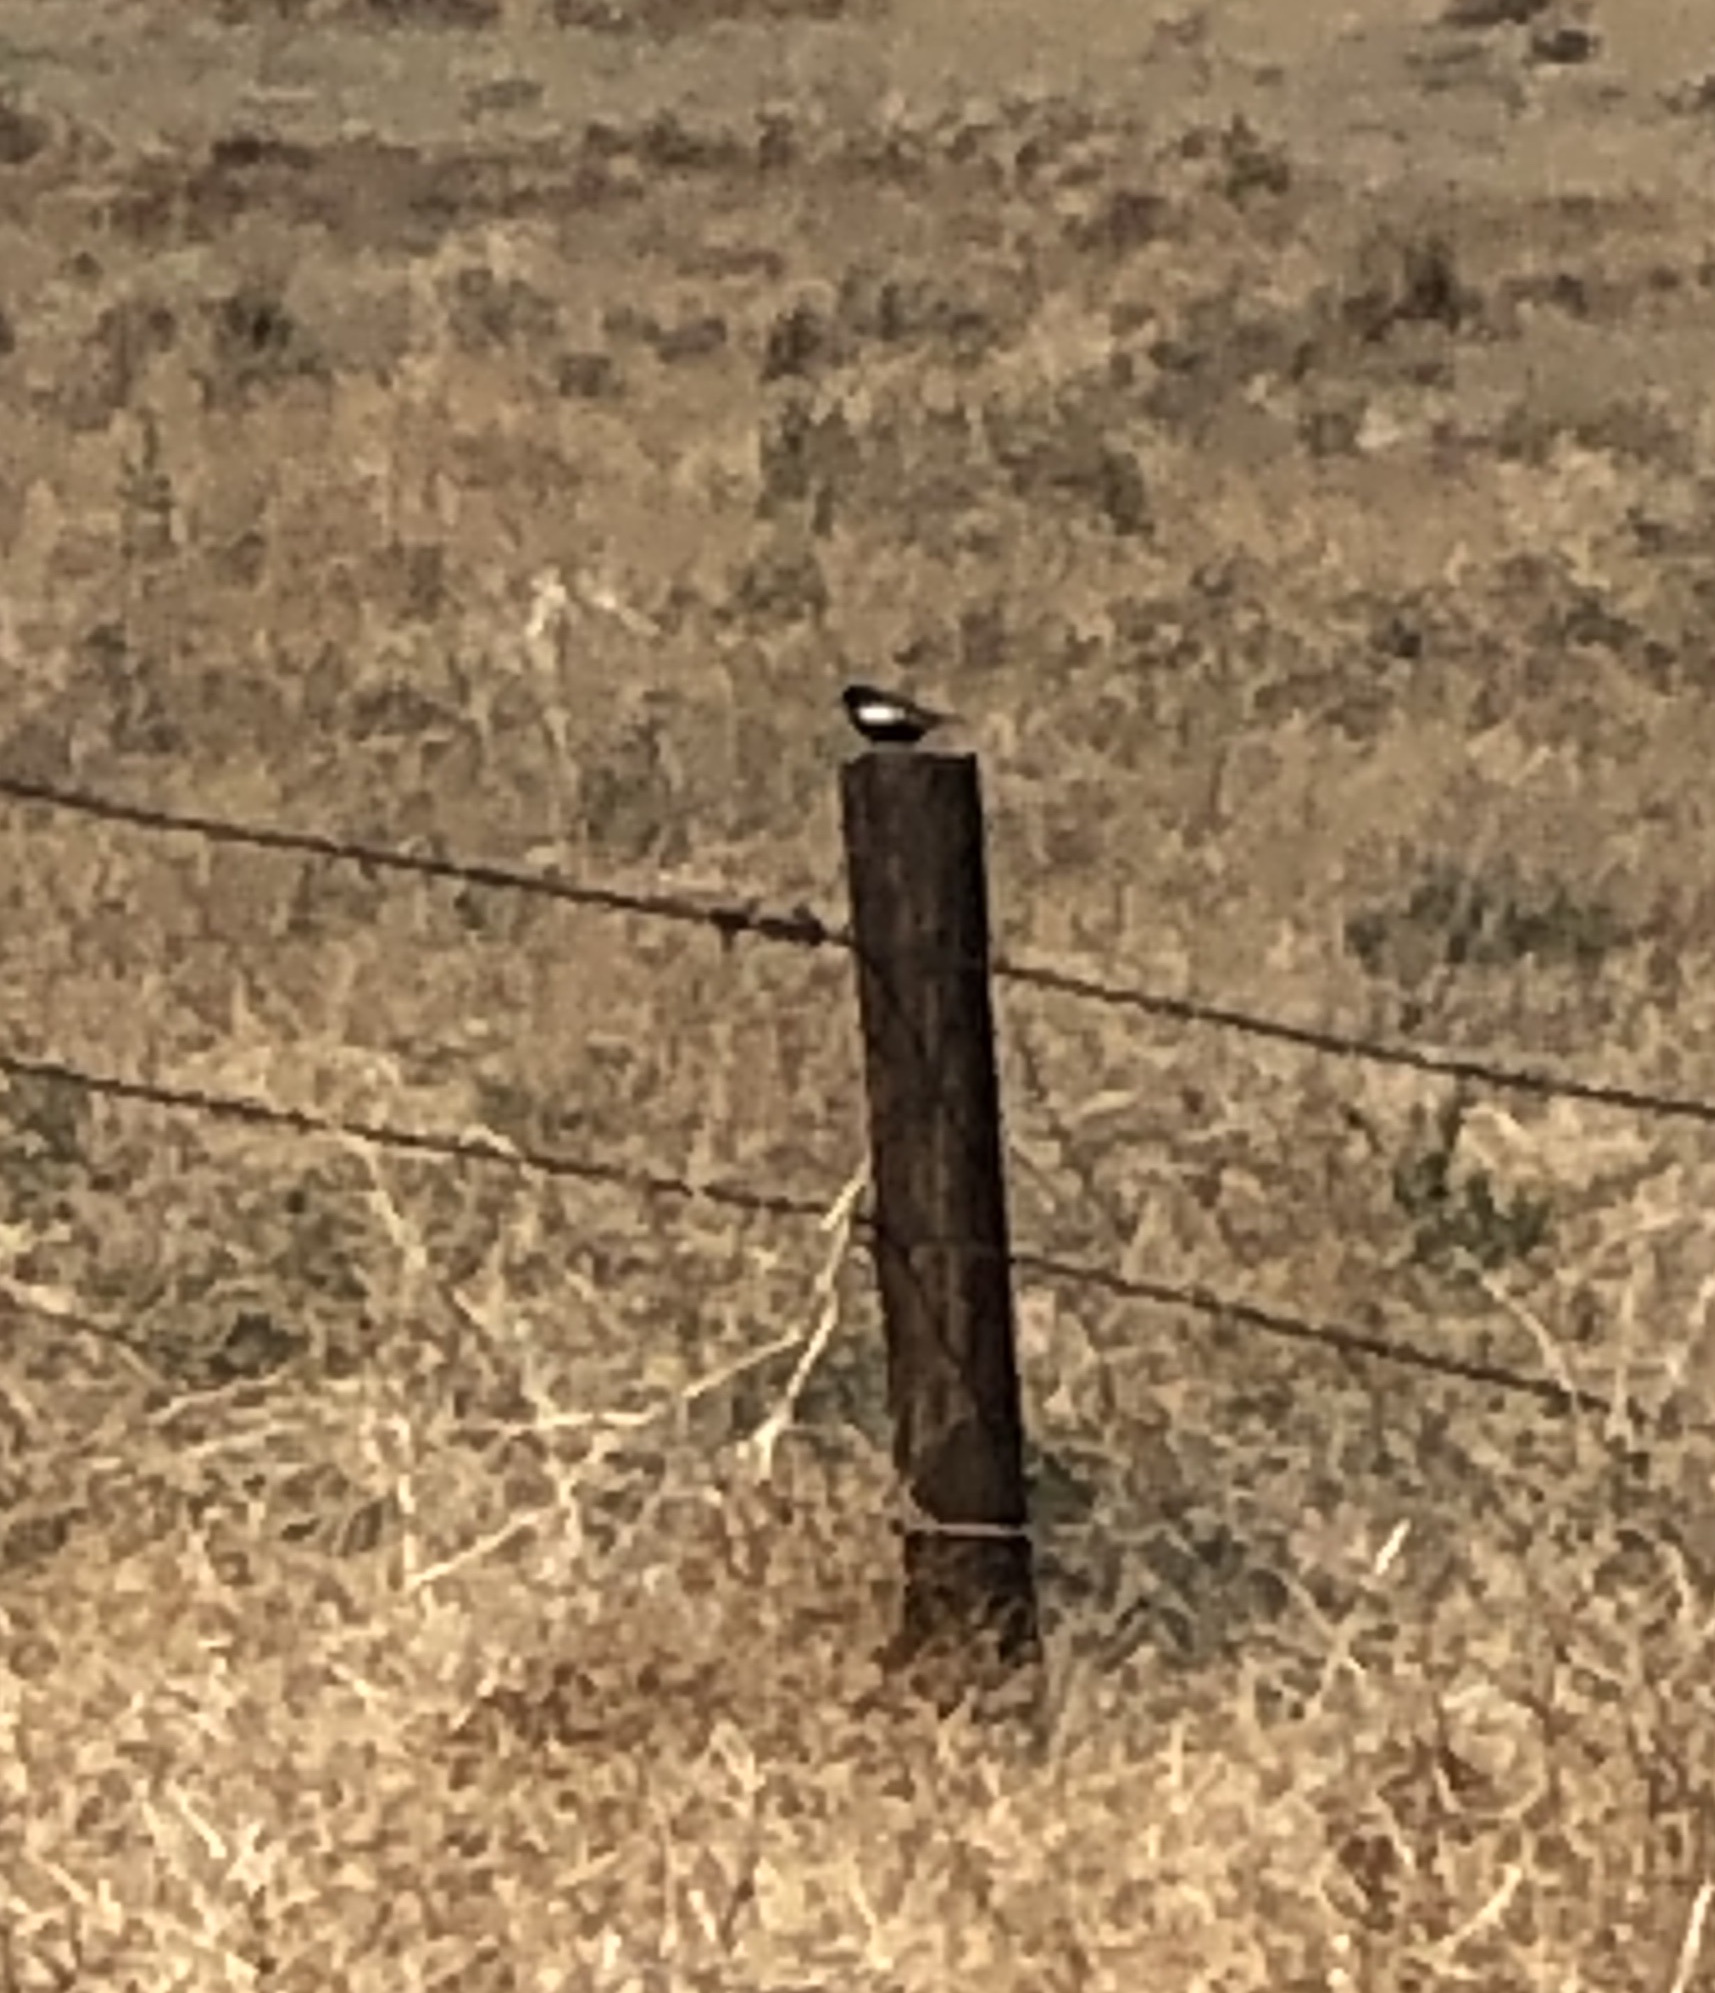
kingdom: Animalia
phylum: Chordata
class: Aves
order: Passeriformes
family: Passerellidae
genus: Calamospiza
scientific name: Calamospiza melanocorys
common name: Lark bunting
